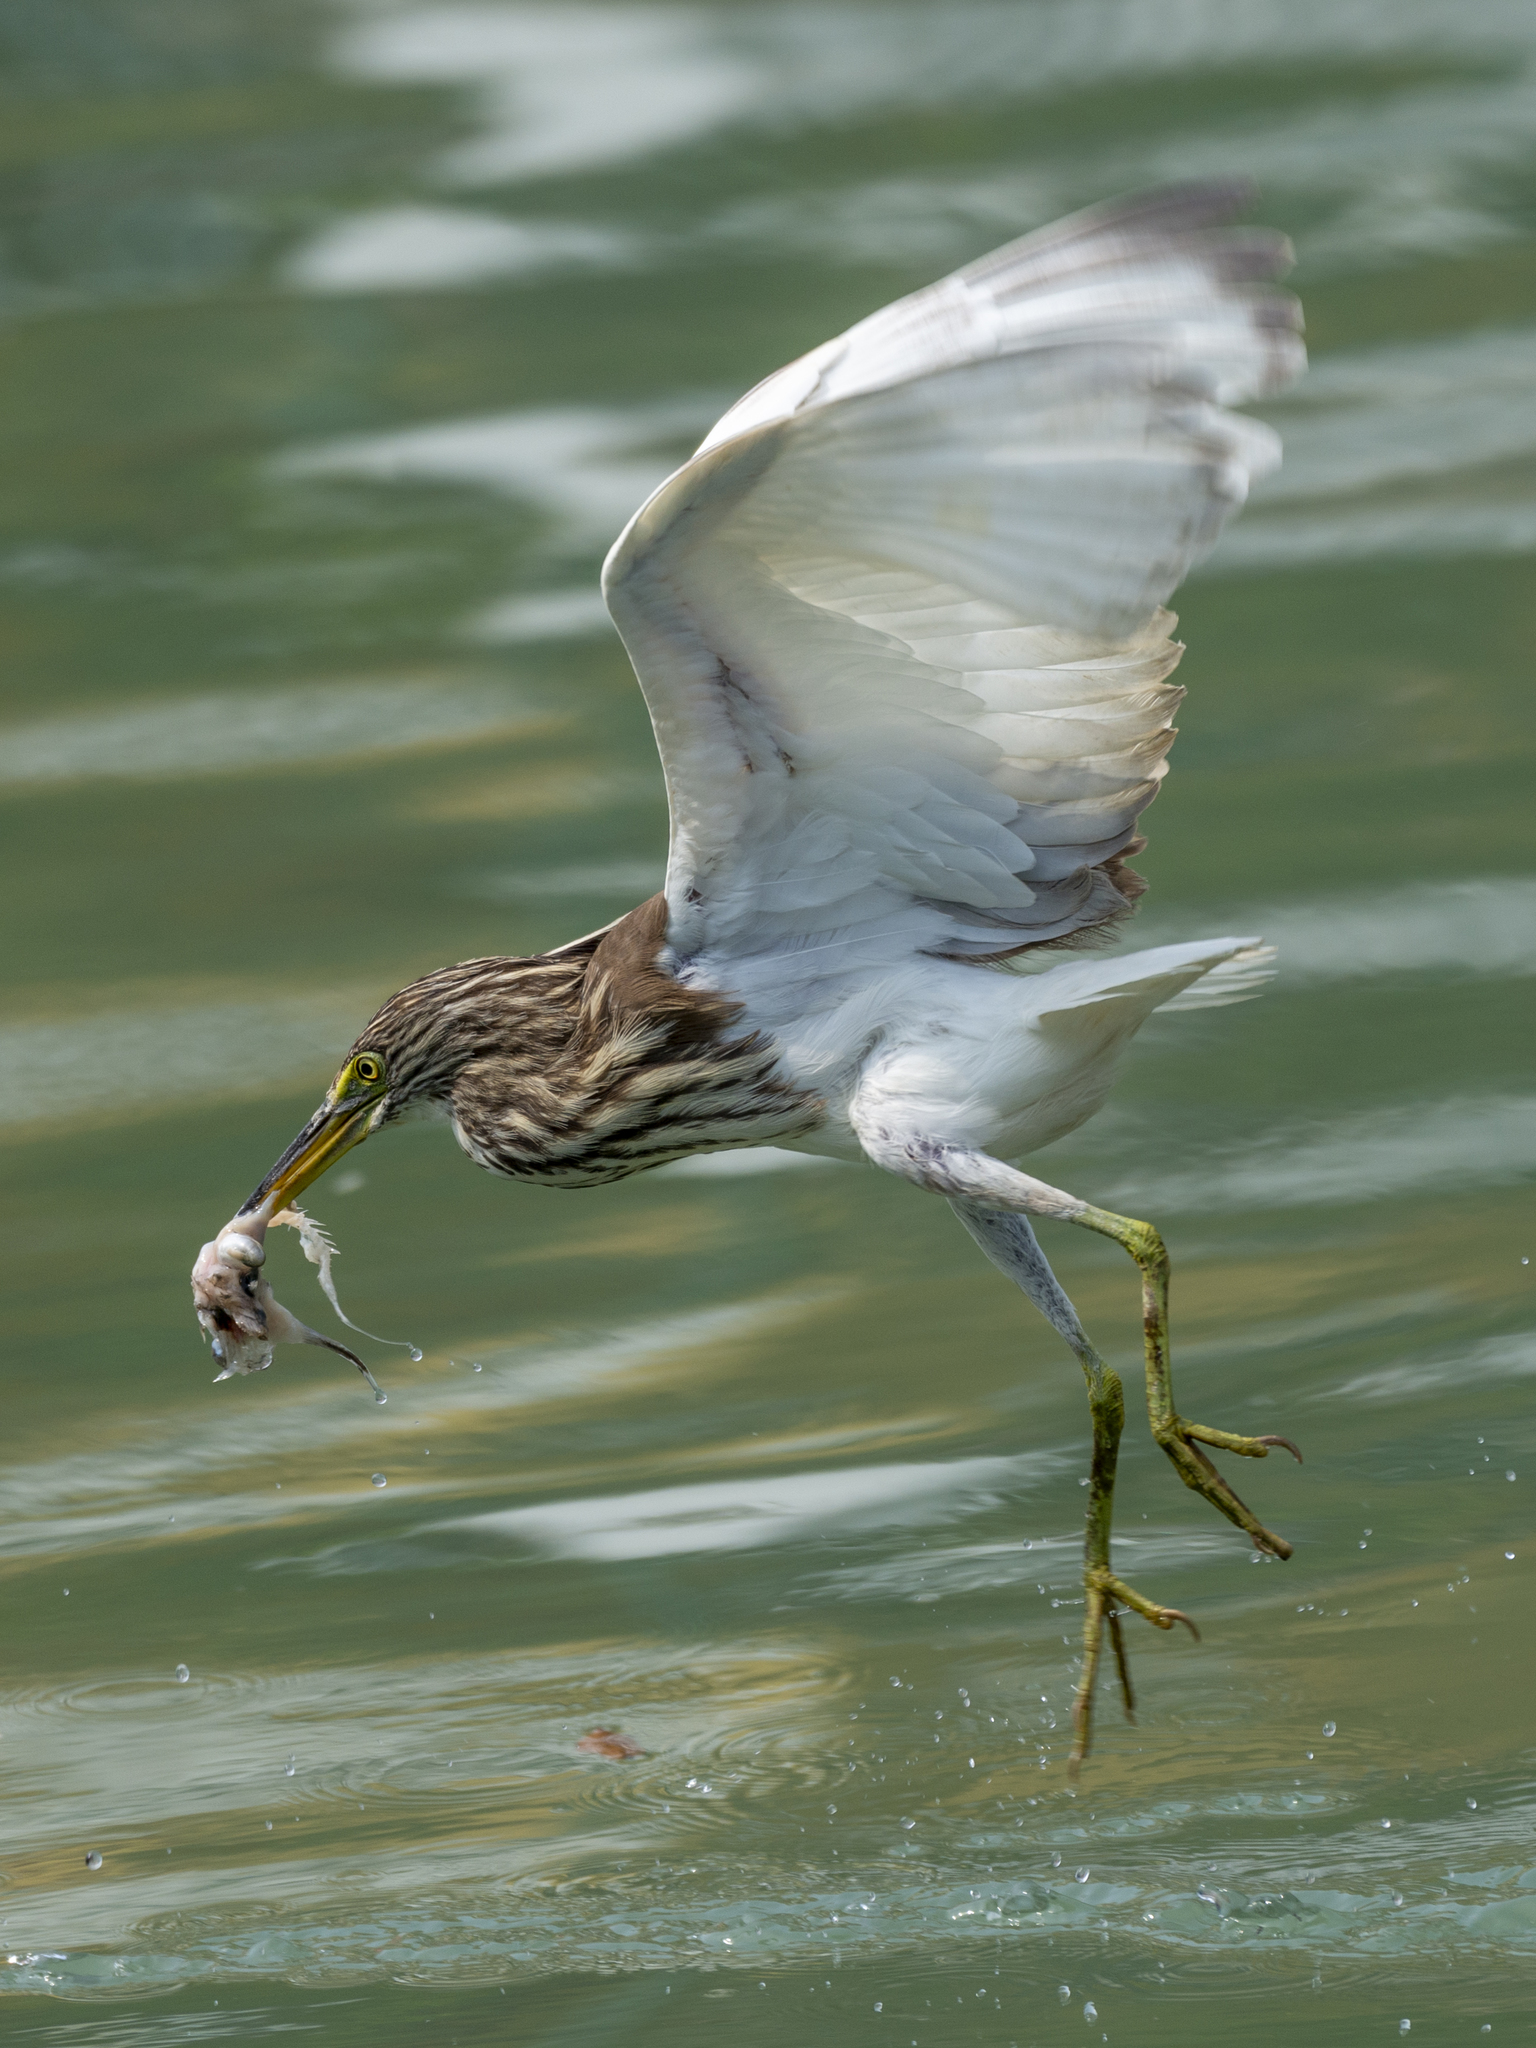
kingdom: Animalia
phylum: Chordata
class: Aves
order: Pelecaniformes
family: Ardeidae
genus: Ardeola
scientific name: Ardeola bacchus
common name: Chinese pond heron
